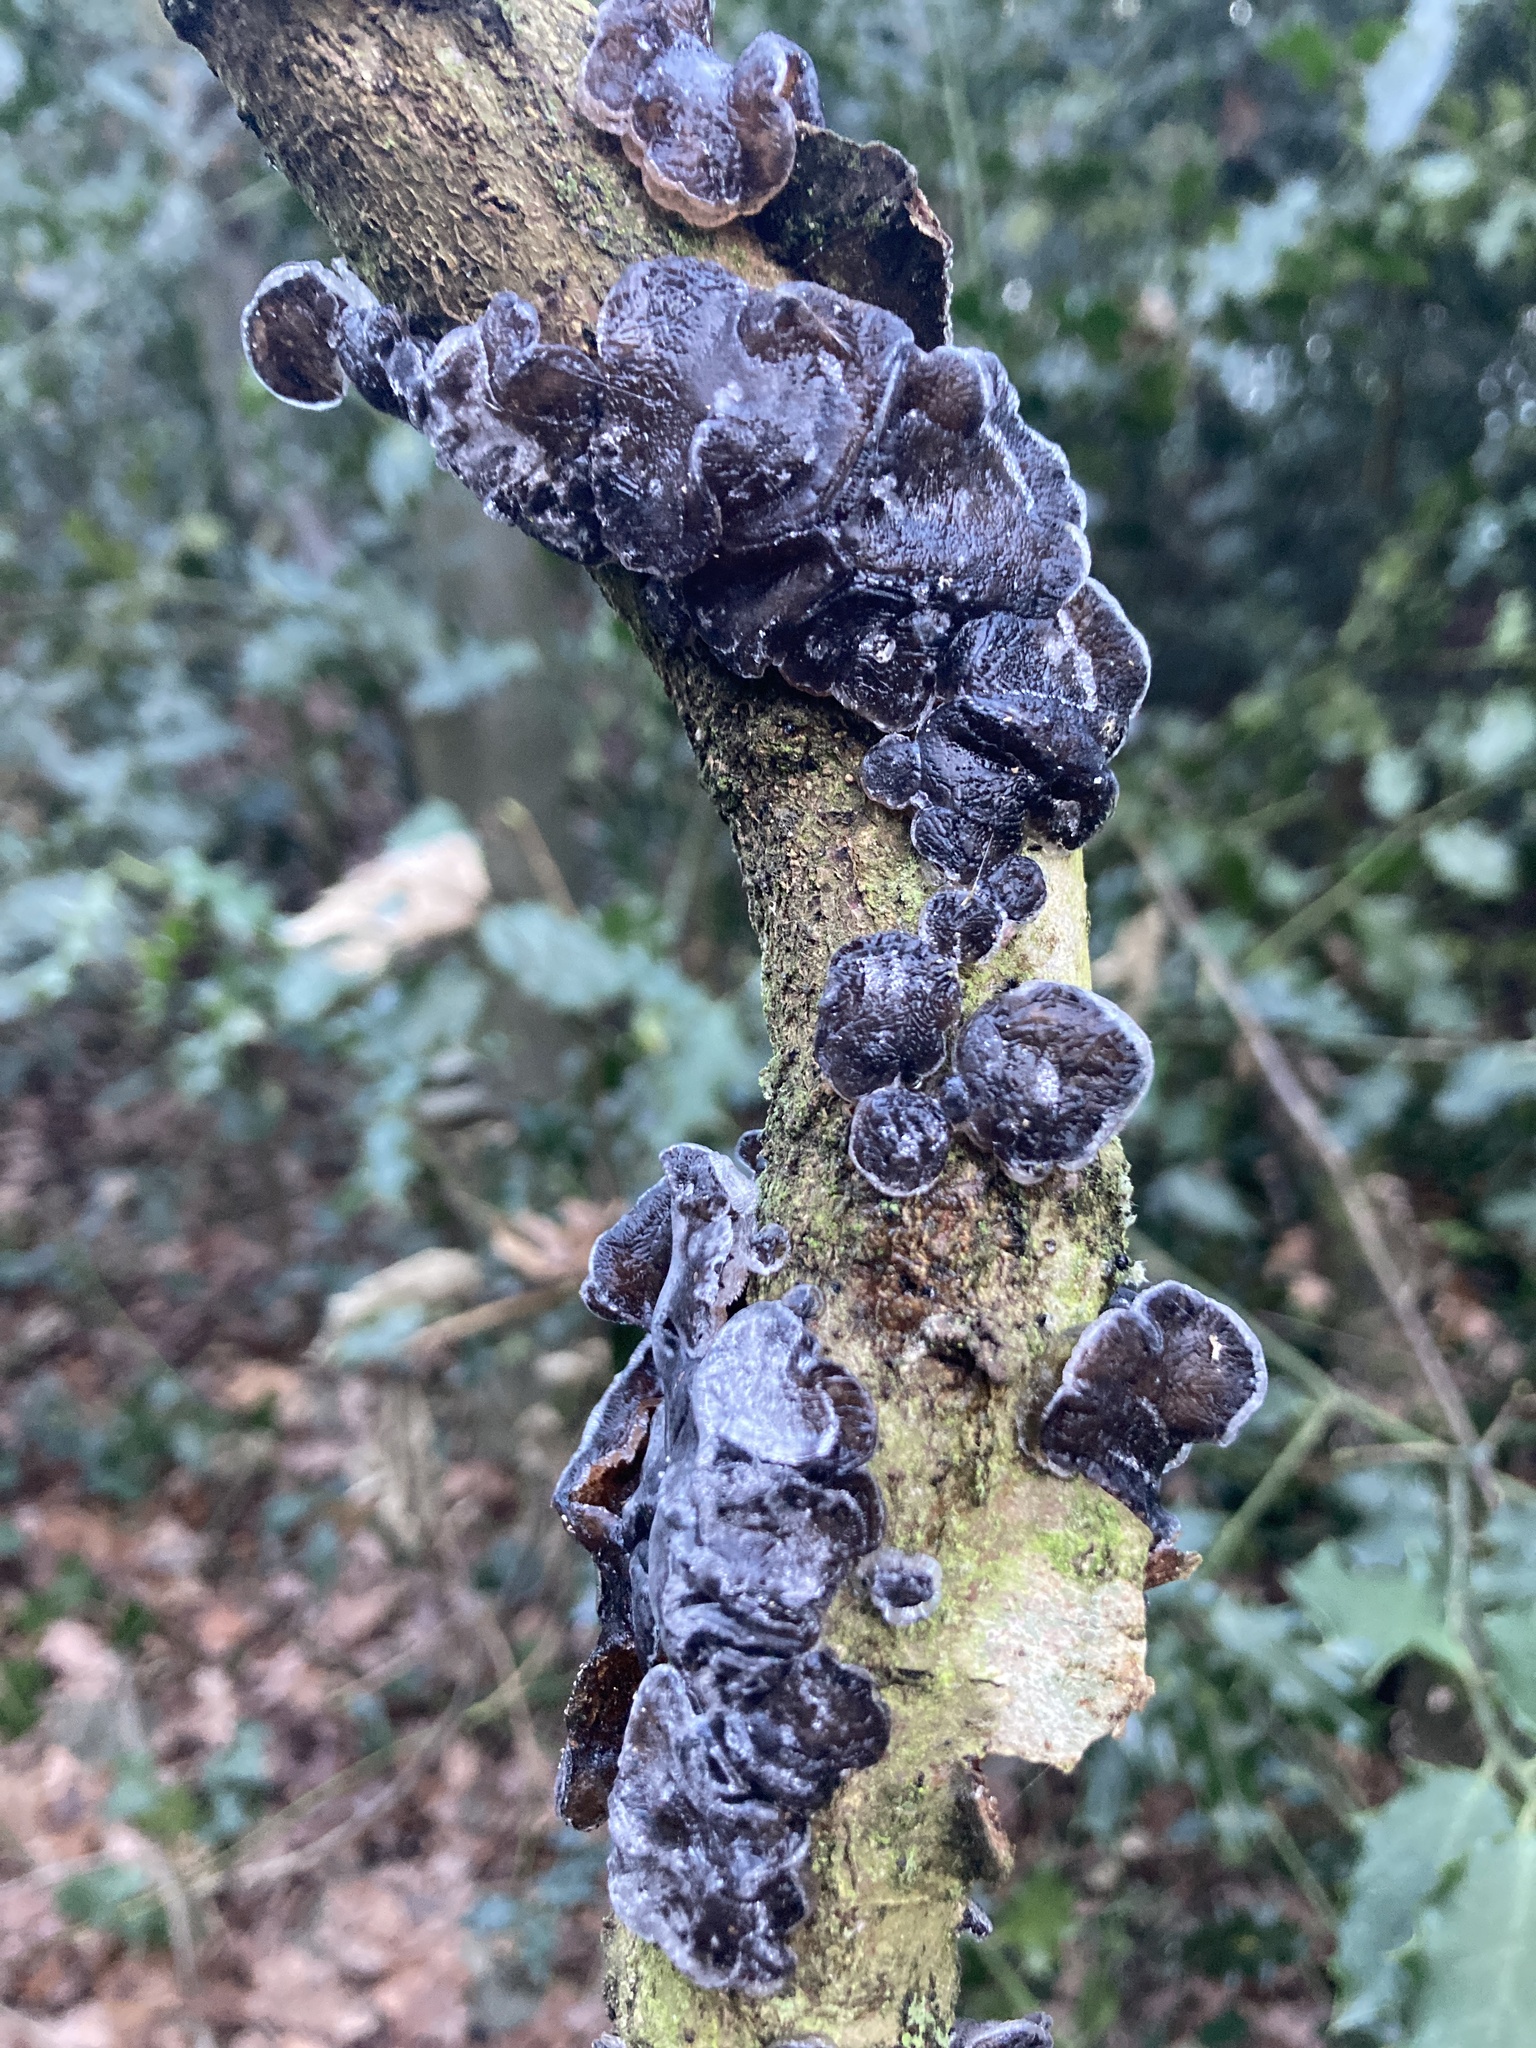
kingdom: Fungi
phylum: Basidiomycota
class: Agaricomycetes
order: Auriculariales
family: Auriculariaceae
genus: Exidia
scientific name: Exidia glandulosa
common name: Witches' butter
